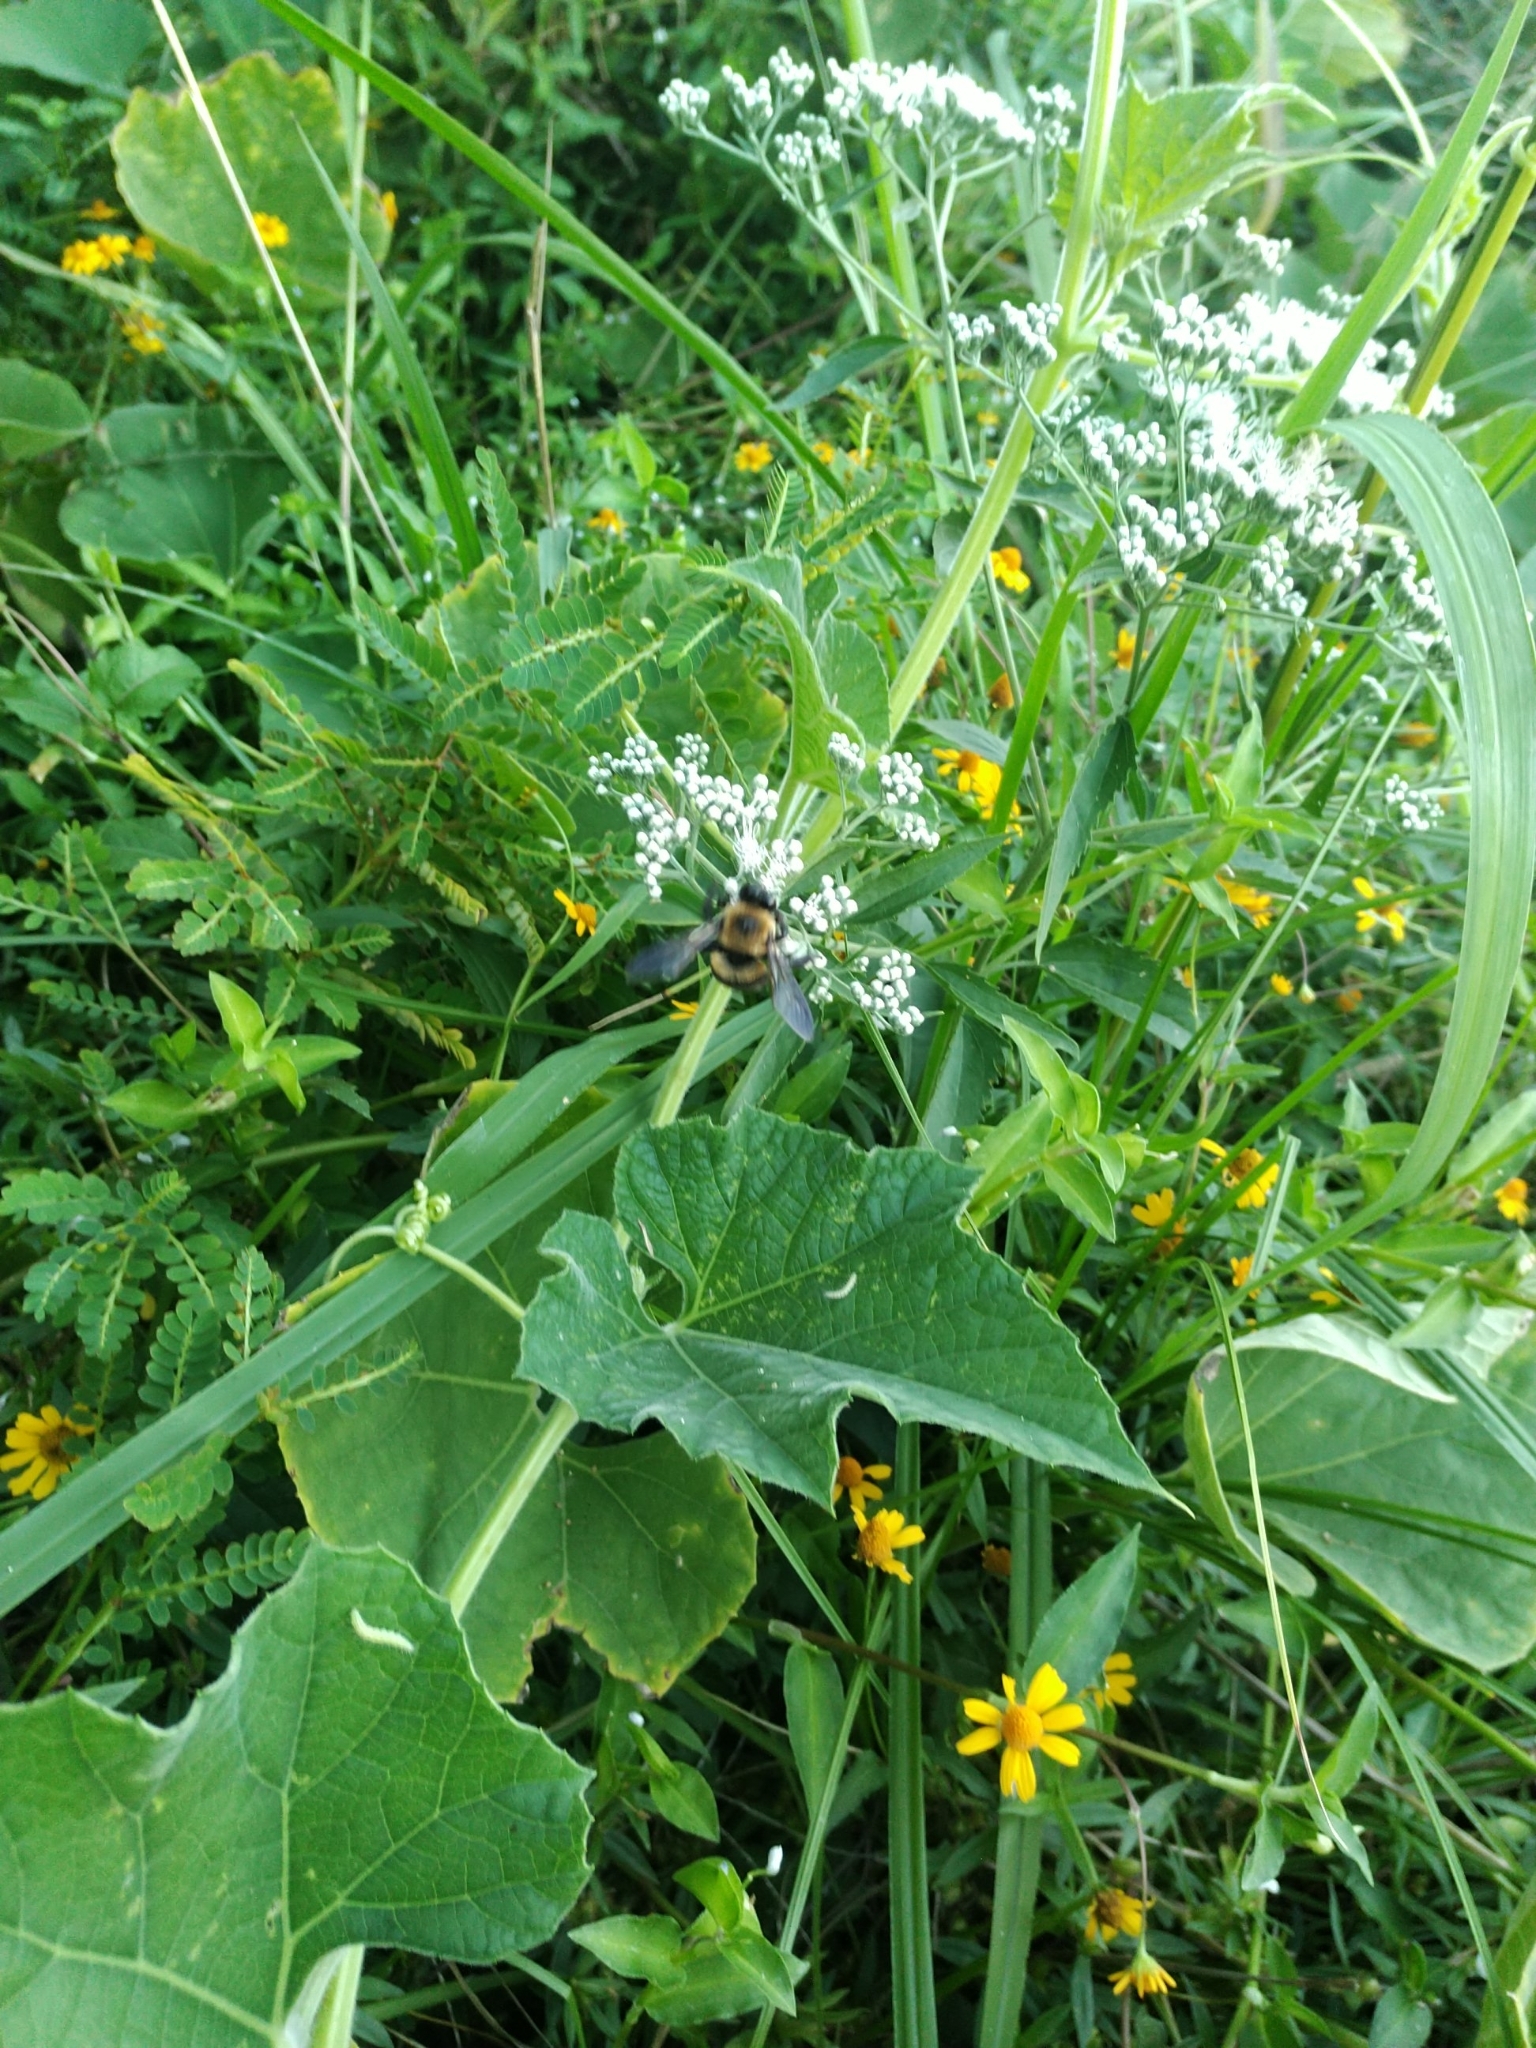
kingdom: Animalia
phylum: Arthropoda
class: Insecta
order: Hymenoptera
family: Apidae
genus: Xylocopa
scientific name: Xylocopa virginica
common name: Carpenter bee
